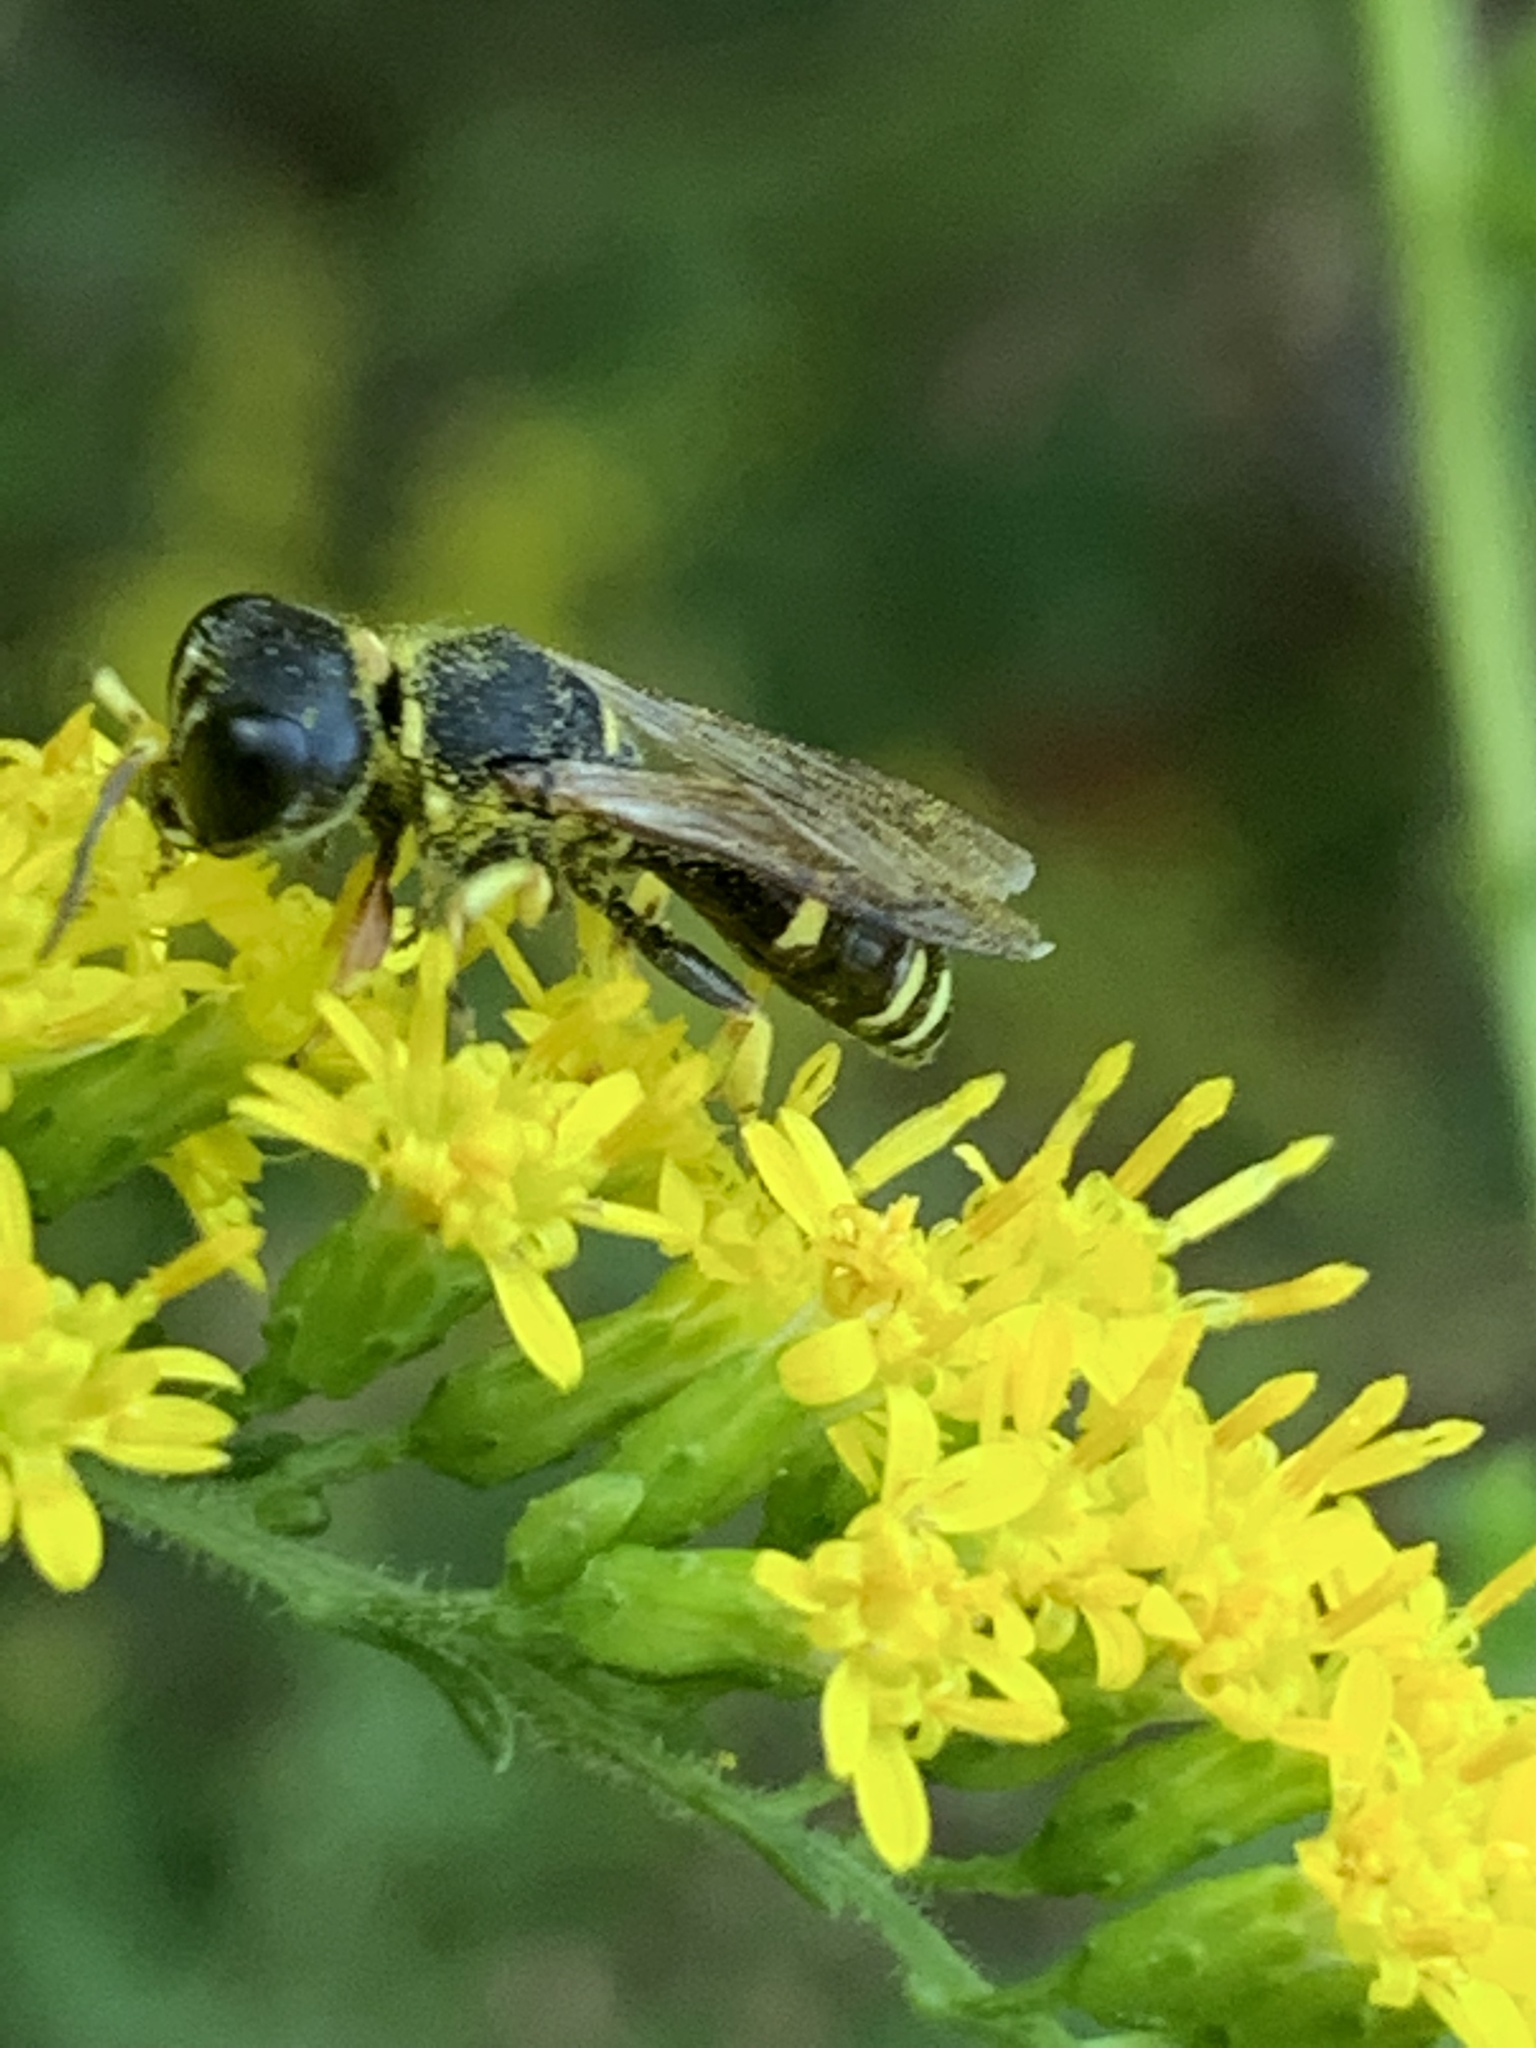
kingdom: Animalia
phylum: Arthropoda
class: Insecta
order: Hymenoptera
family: Crabronidae
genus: Ectemnius
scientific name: Ectemnius continuus
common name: Common ectemnius
